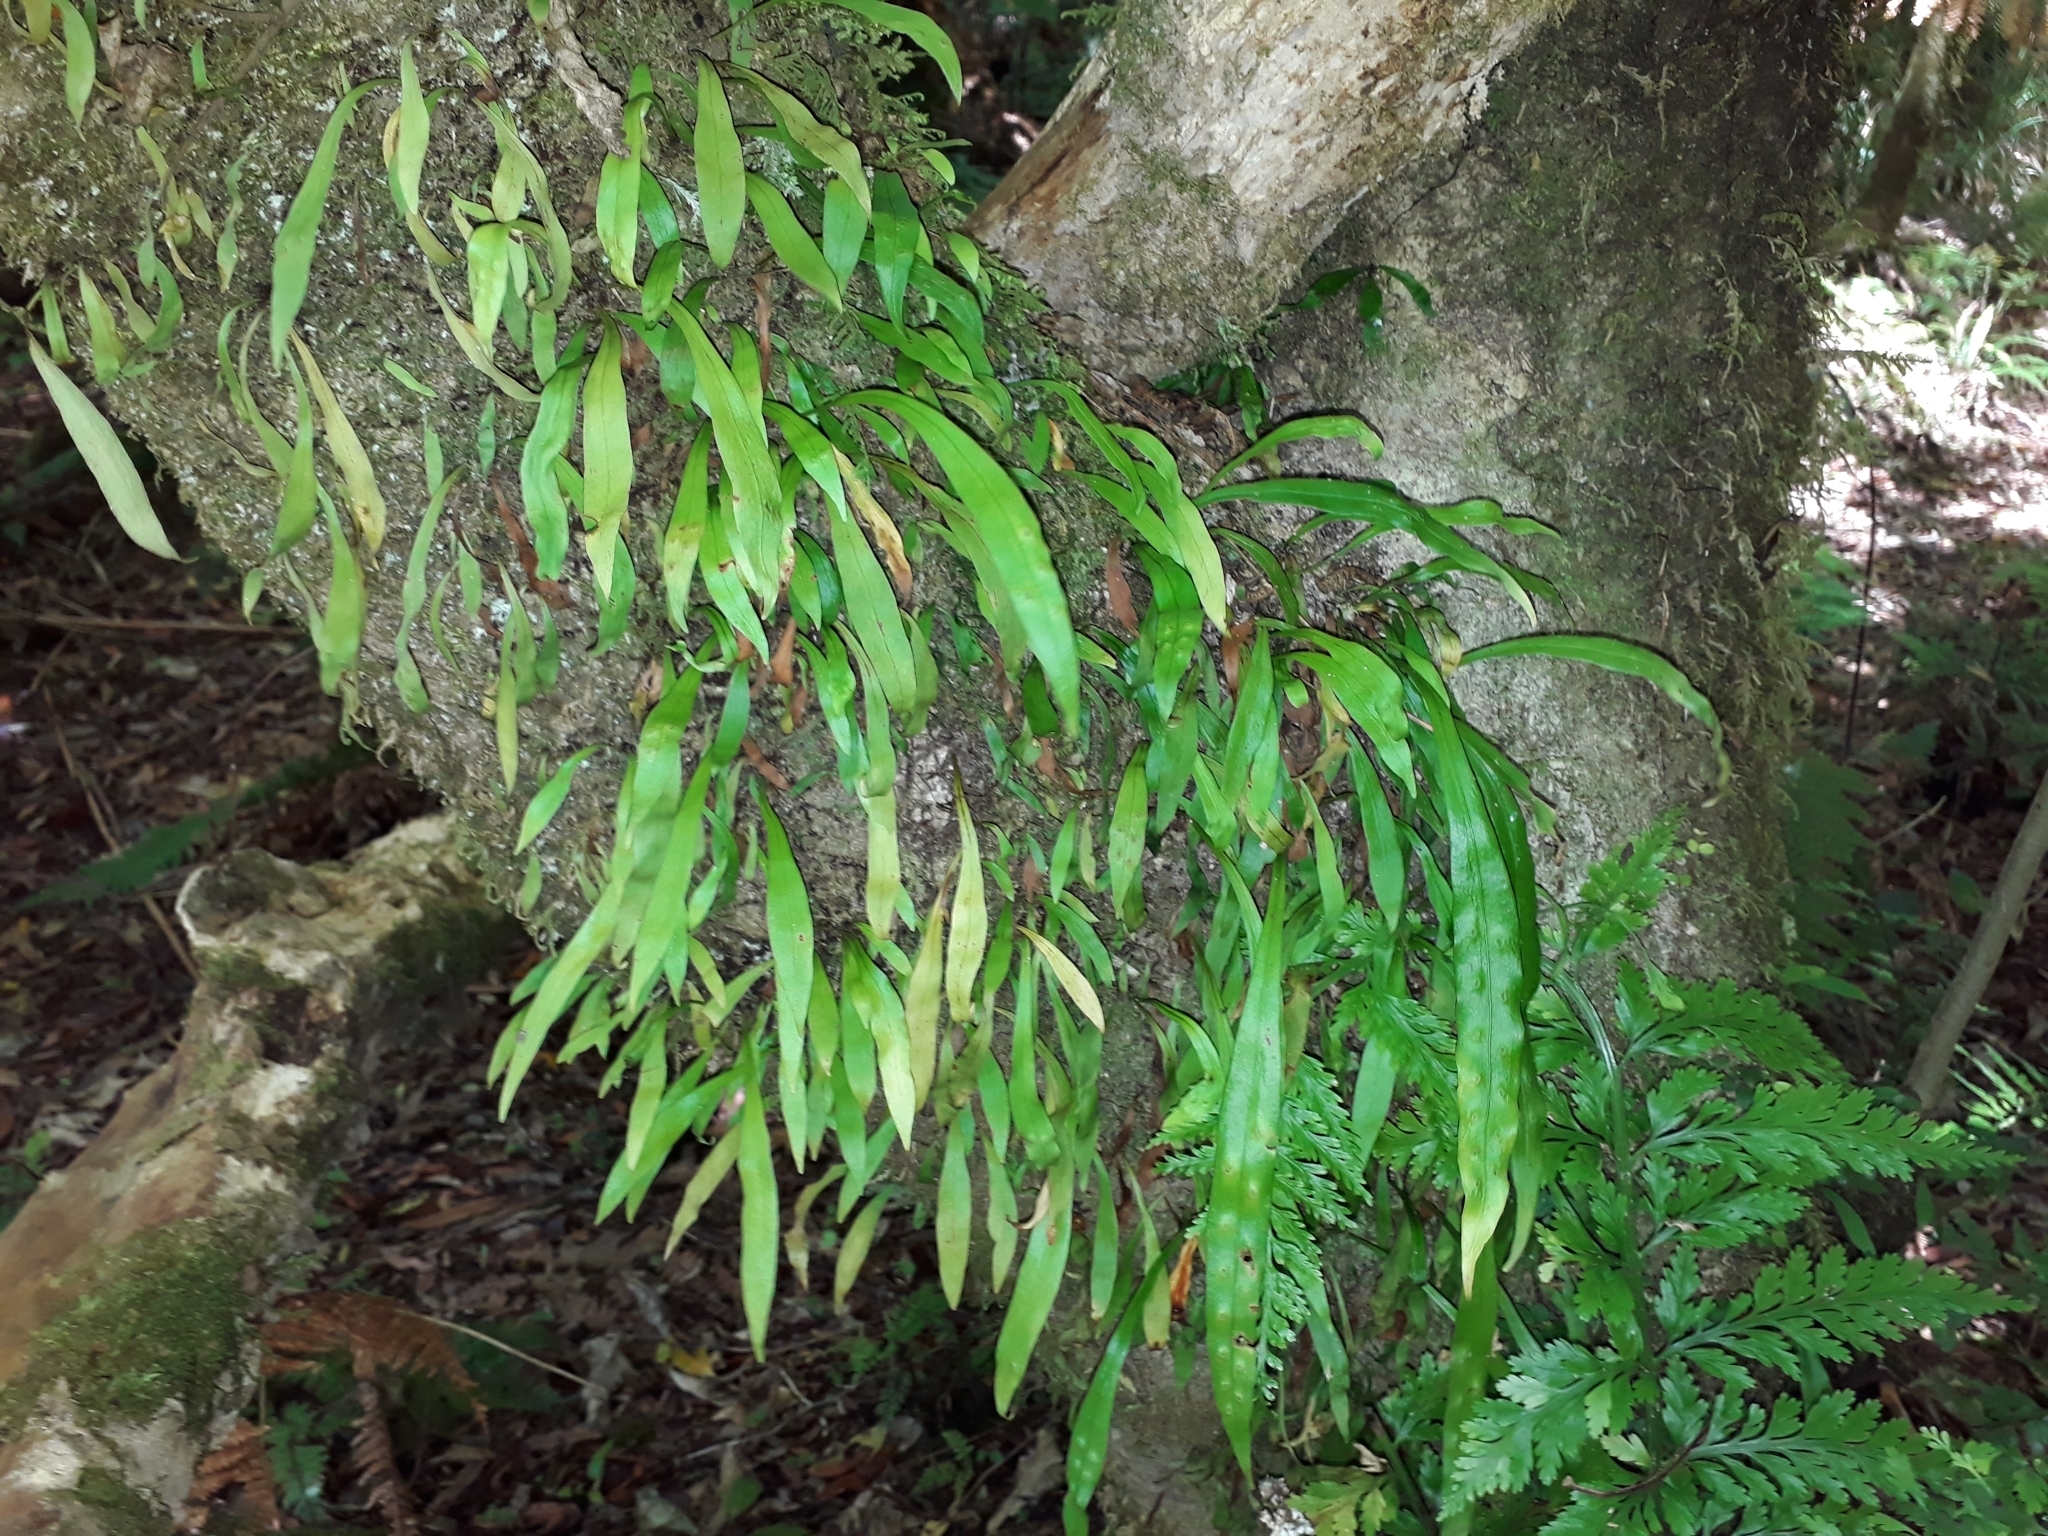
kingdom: Plantae
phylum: Tracheophyta
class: Polypodiopsida
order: Polypodiales
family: Polypodiaceae
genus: Loxogramme
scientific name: Loxogramme dictyopteris
